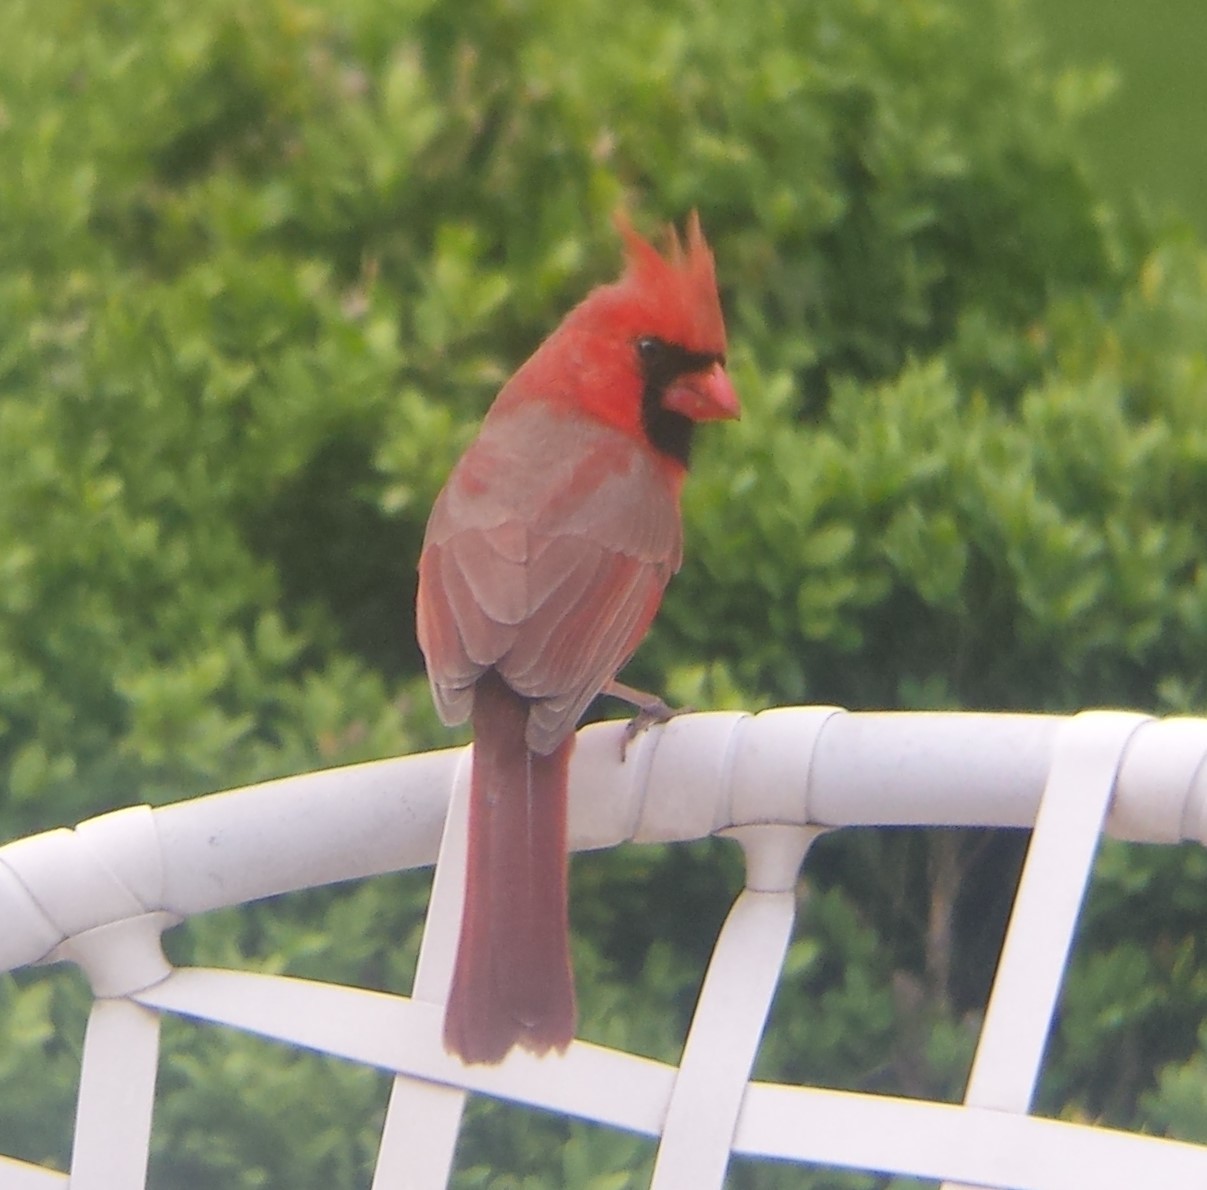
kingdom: Animalia
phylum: Chordata
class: Aves
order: Passeriformes
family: Cardinalidae
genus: Cardinalis
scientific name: Cardinalis cardinalis
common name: Northern cardinal
